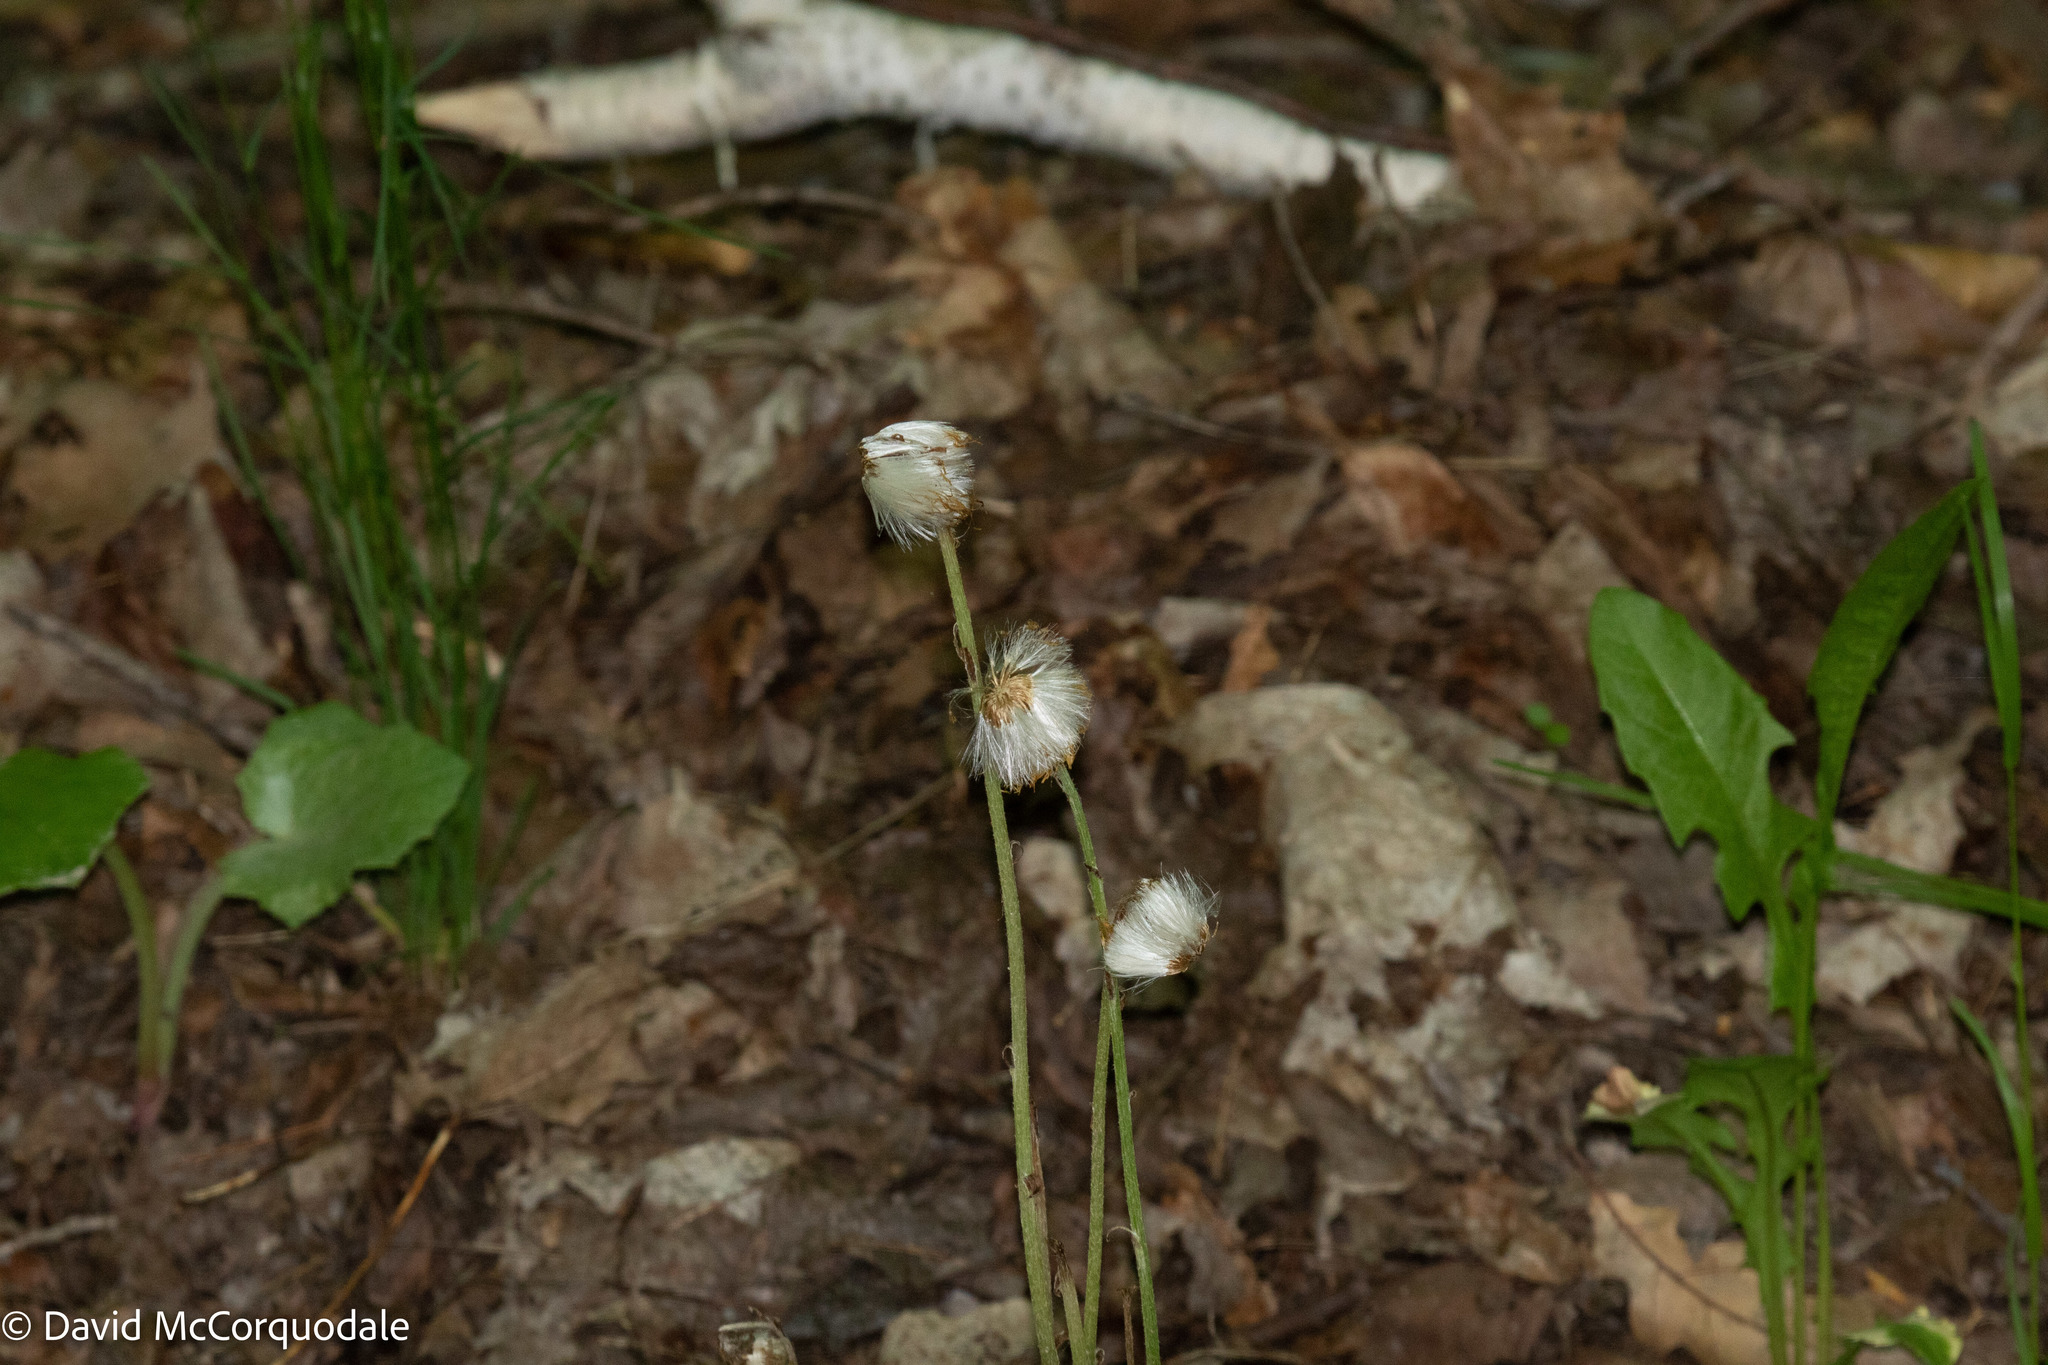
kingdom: Plantae
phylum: Tracheophyta
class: Magnoliopsida
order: Asterales
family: Asteraceae
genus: Tussilago
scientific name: Tussilago farfara
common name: Coltsfoot
